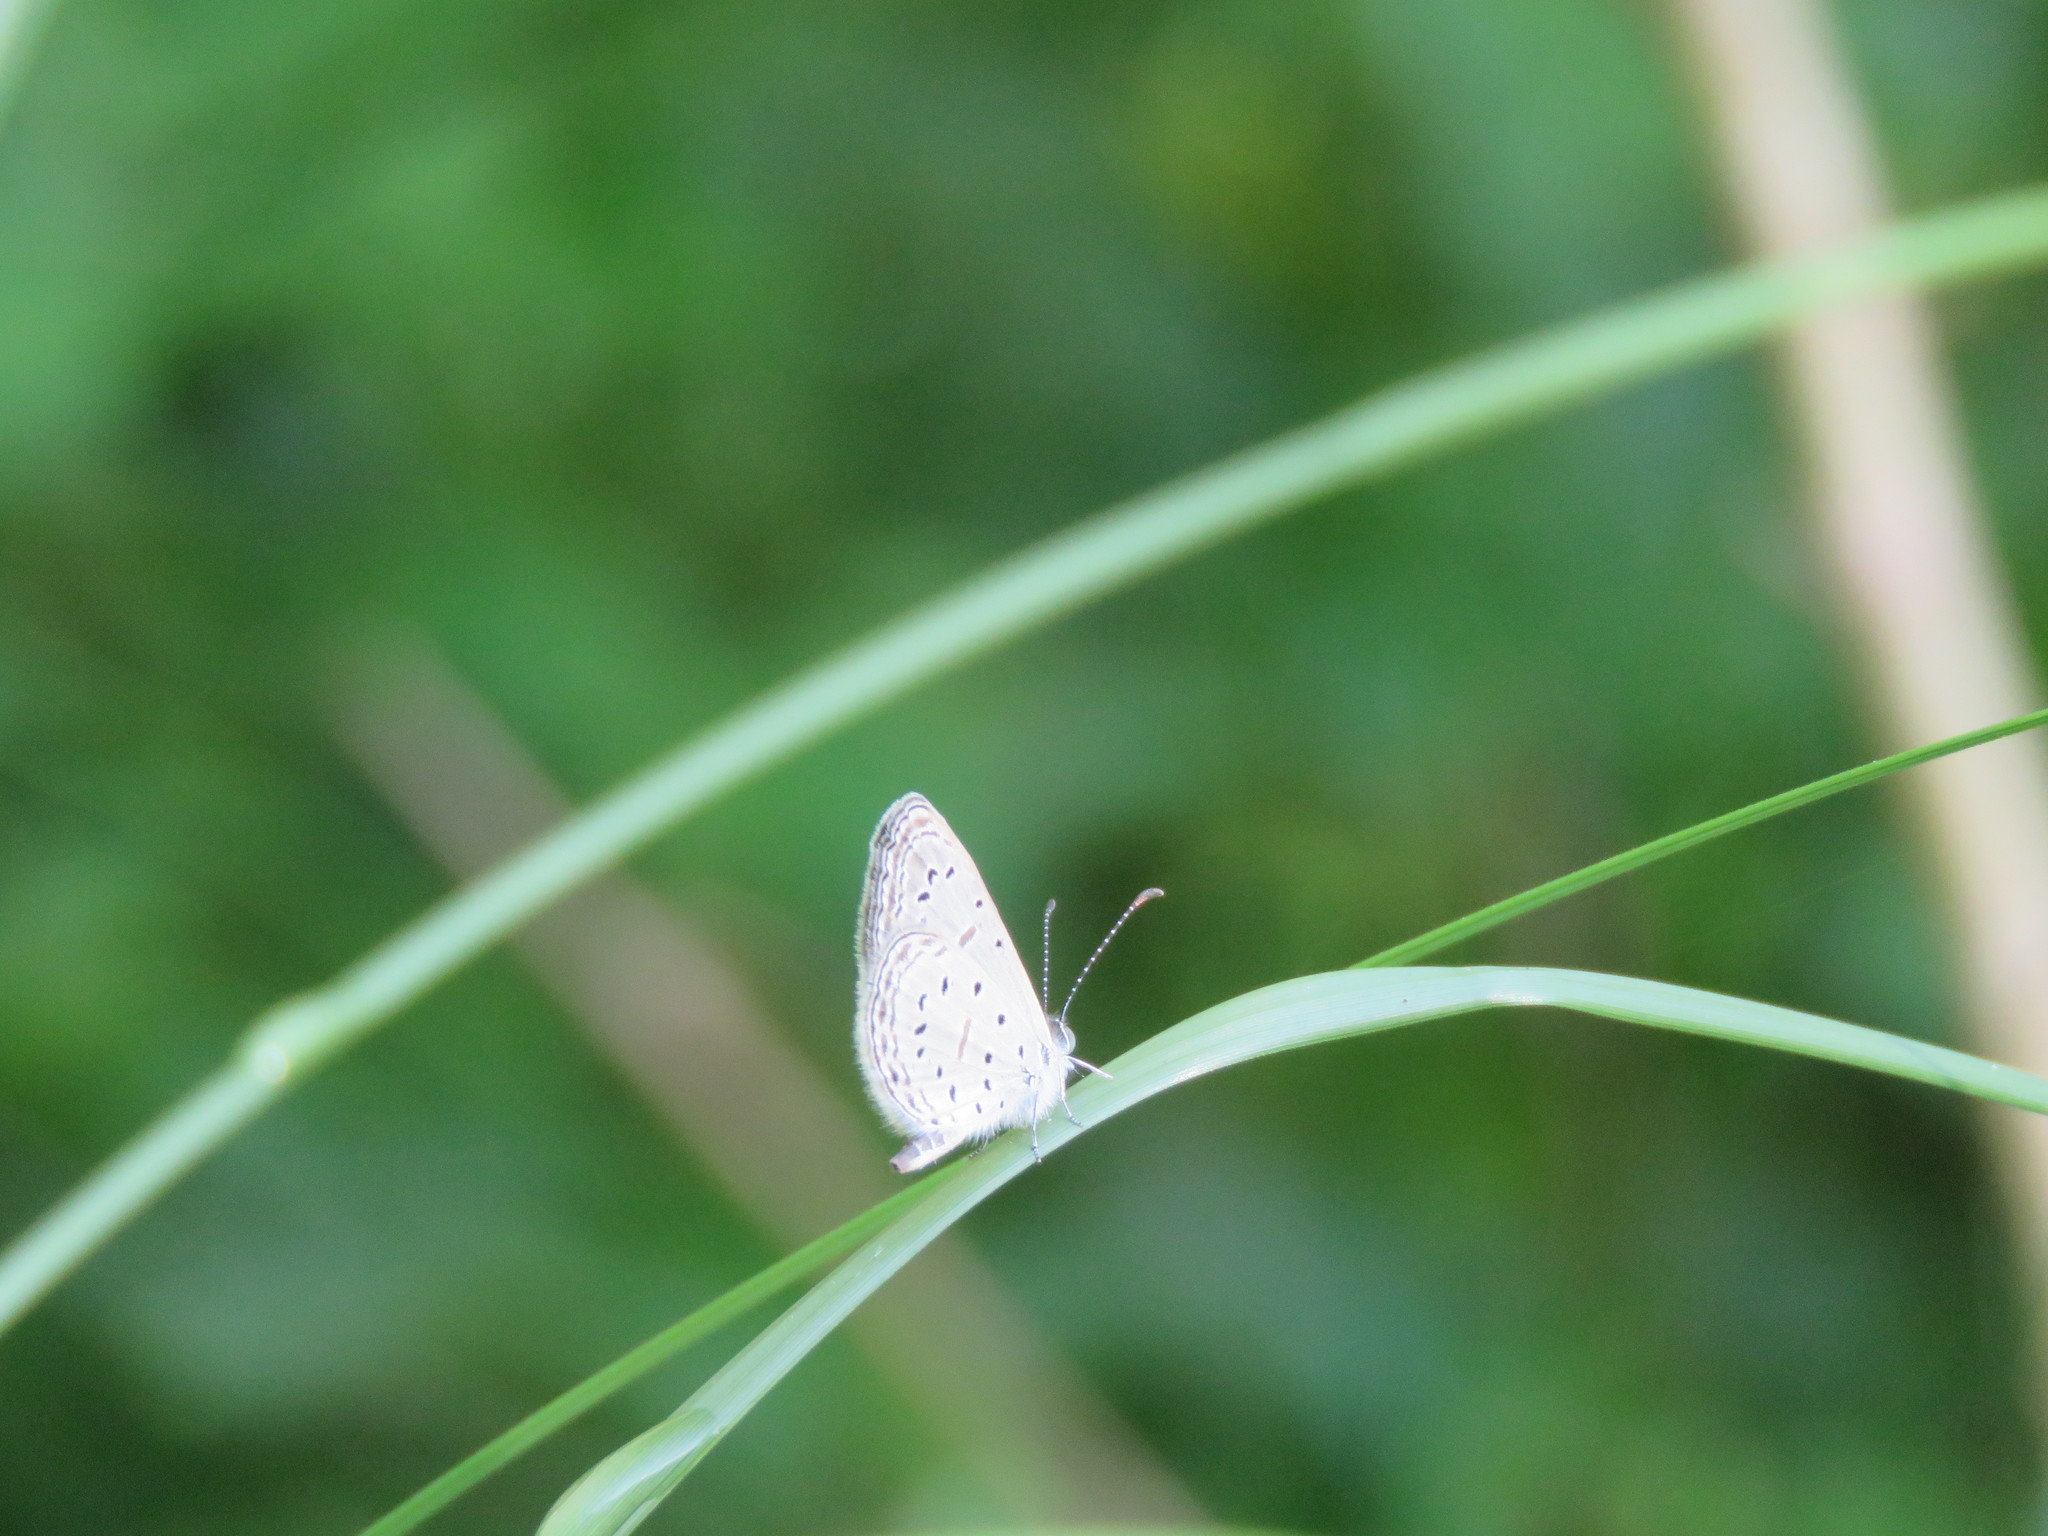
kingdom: Animalia
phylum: Arthropoda
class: Insecta
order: Lepidoptera
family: Lycaenidae
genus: Zizula
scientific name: Zizula hylax
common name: Gaika blue
